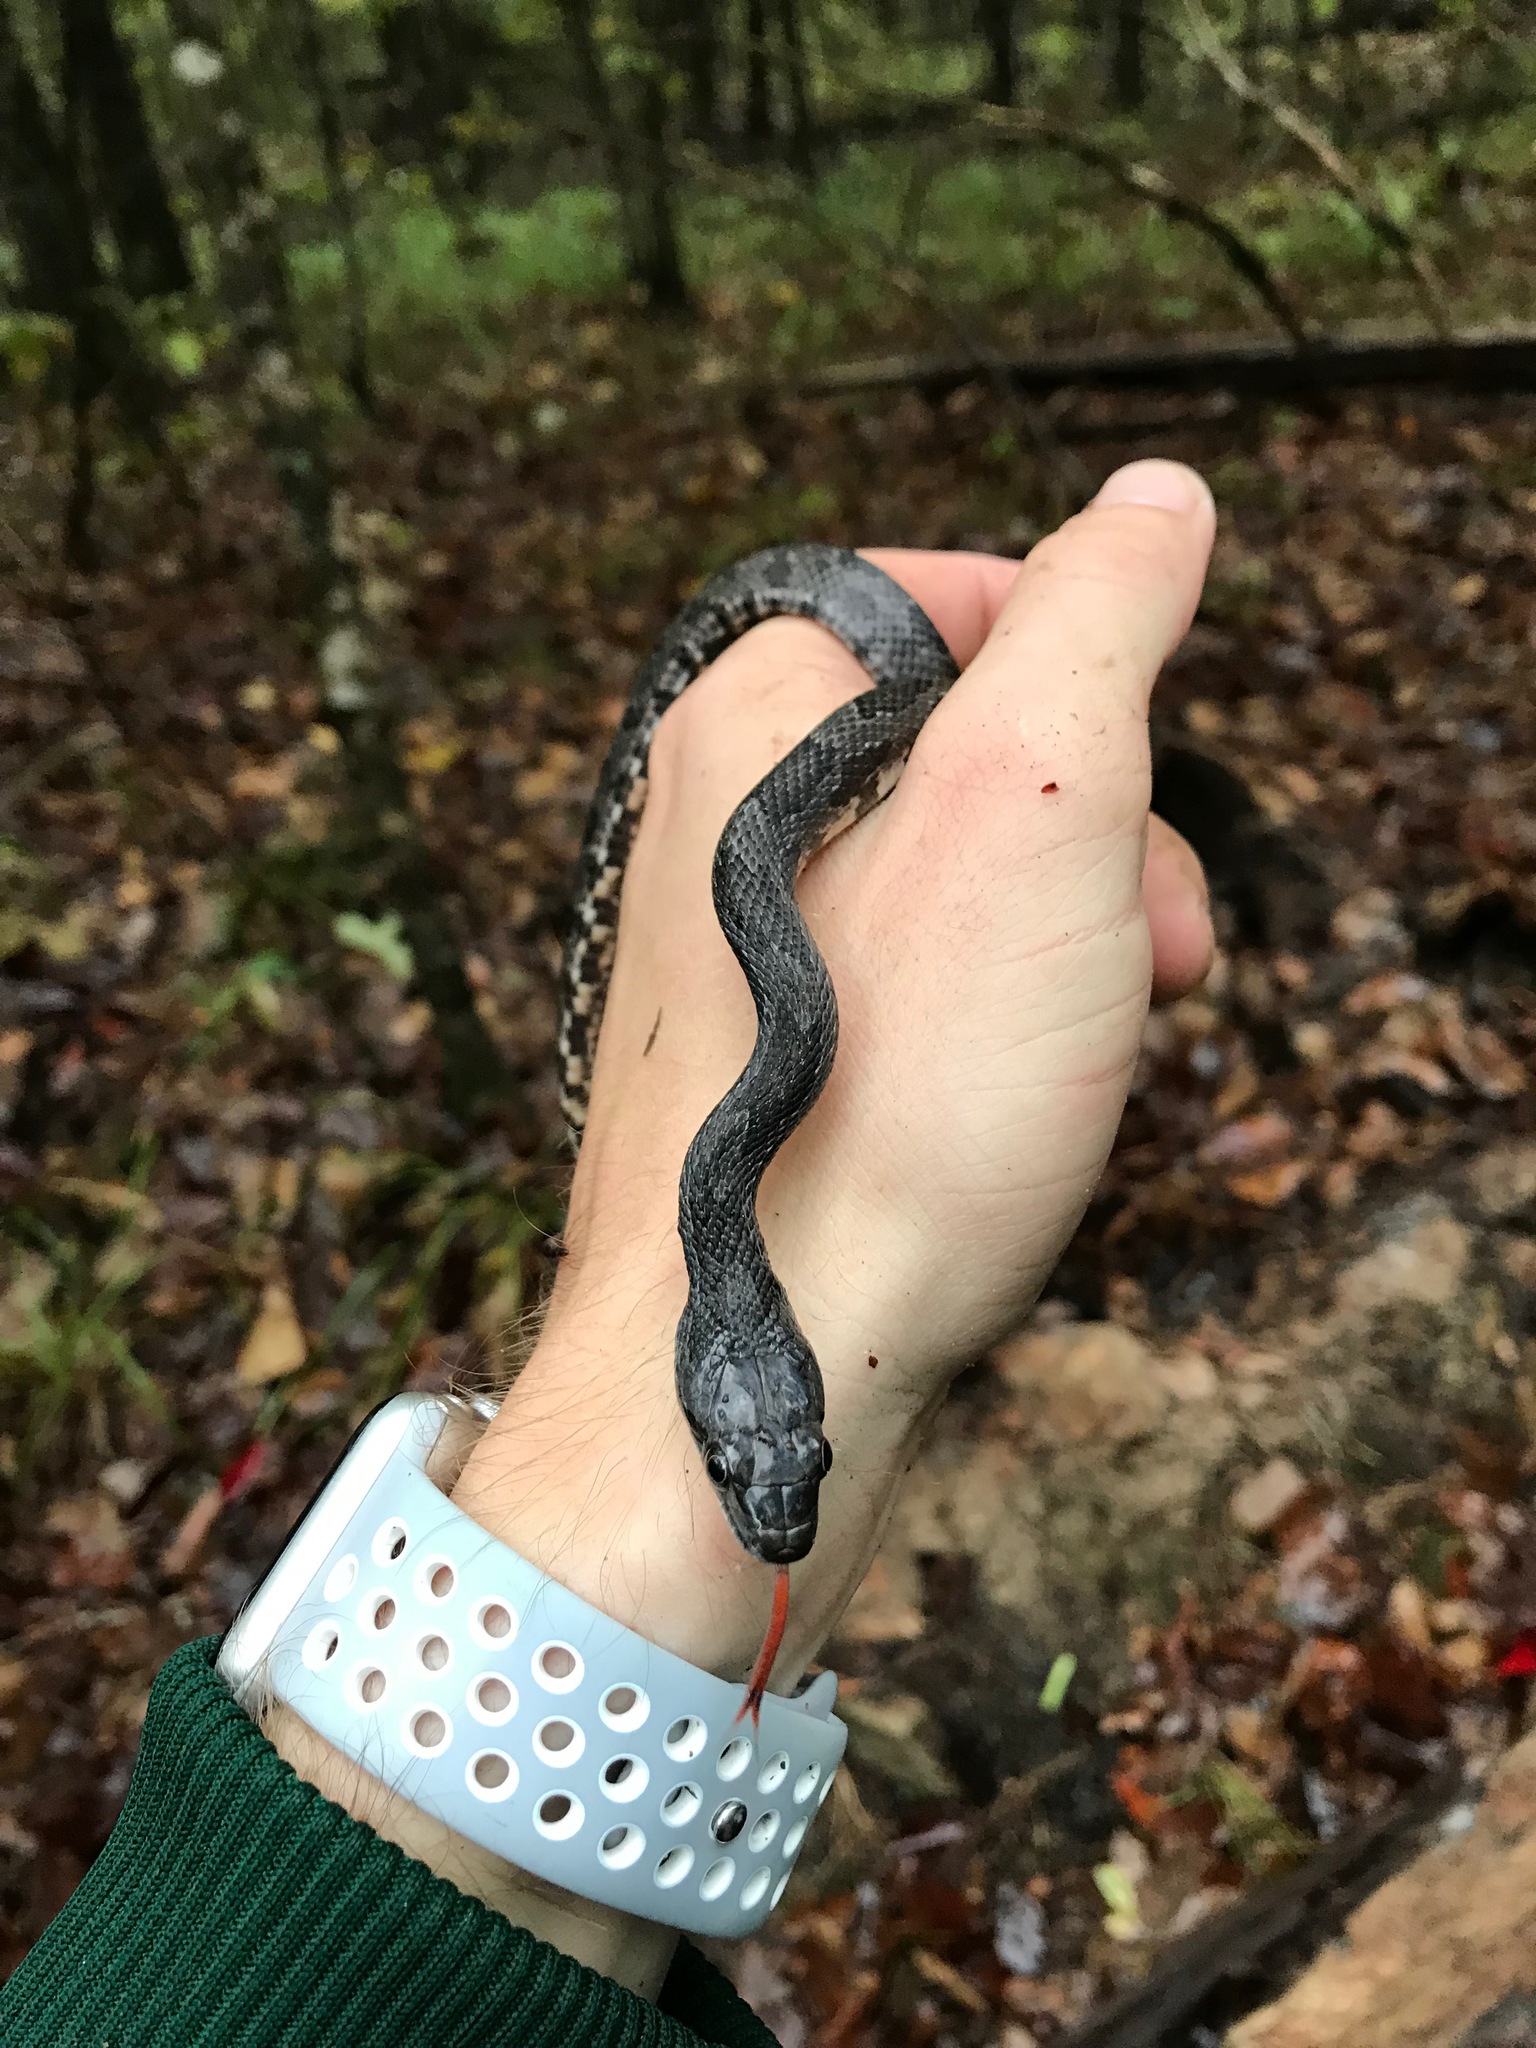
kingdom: Animalia
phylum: Chordata
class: Squamata
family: Colubridae
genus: Pantherophis
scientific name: Pantherophis obsoletus
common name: Black rat snake
